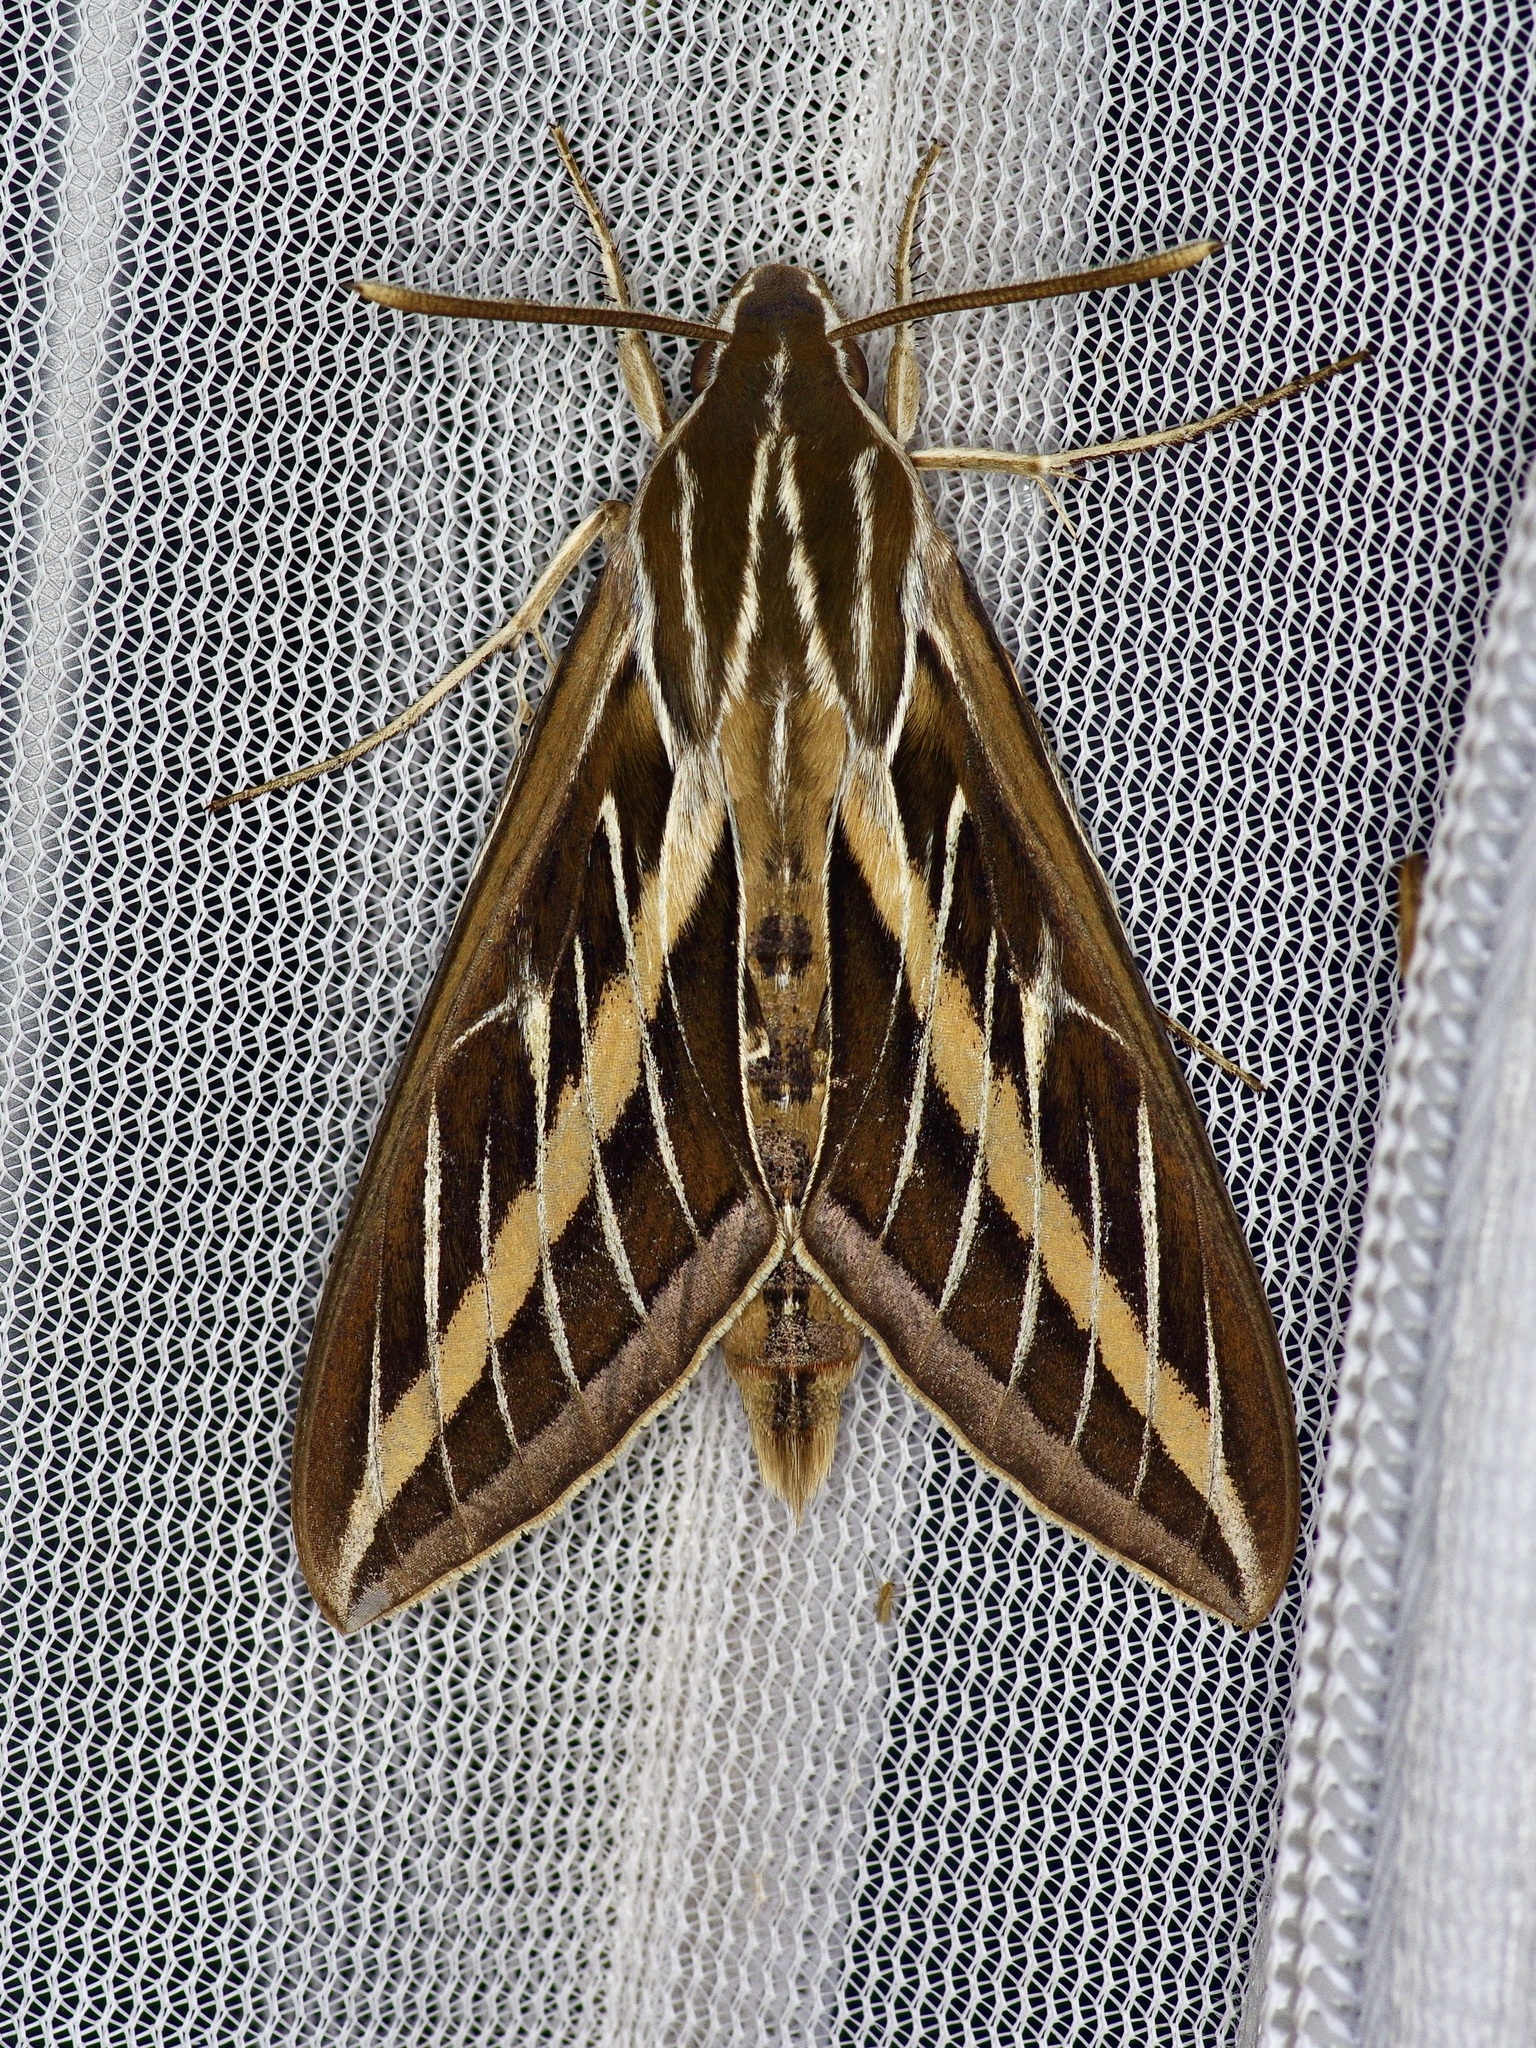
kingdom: Animalia
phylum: Arthropoda
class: Insecta
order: Lepidoptera
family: Sphingidae
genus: Hyles
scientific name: Hyles lineata
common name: White-lined sphinx
